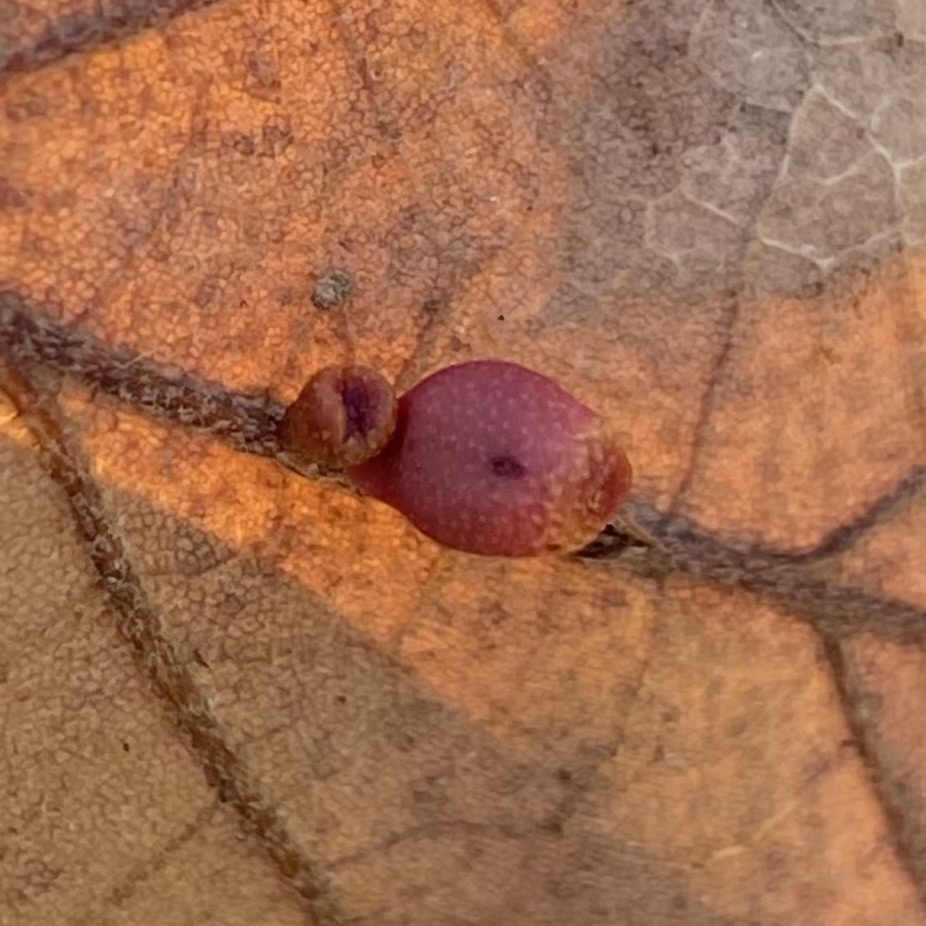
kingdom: Animalia
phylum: Arthropoda
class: Insecta
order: Hymenoptera
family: Cynipidae
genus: Andricus
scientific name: Andricus lustrans
